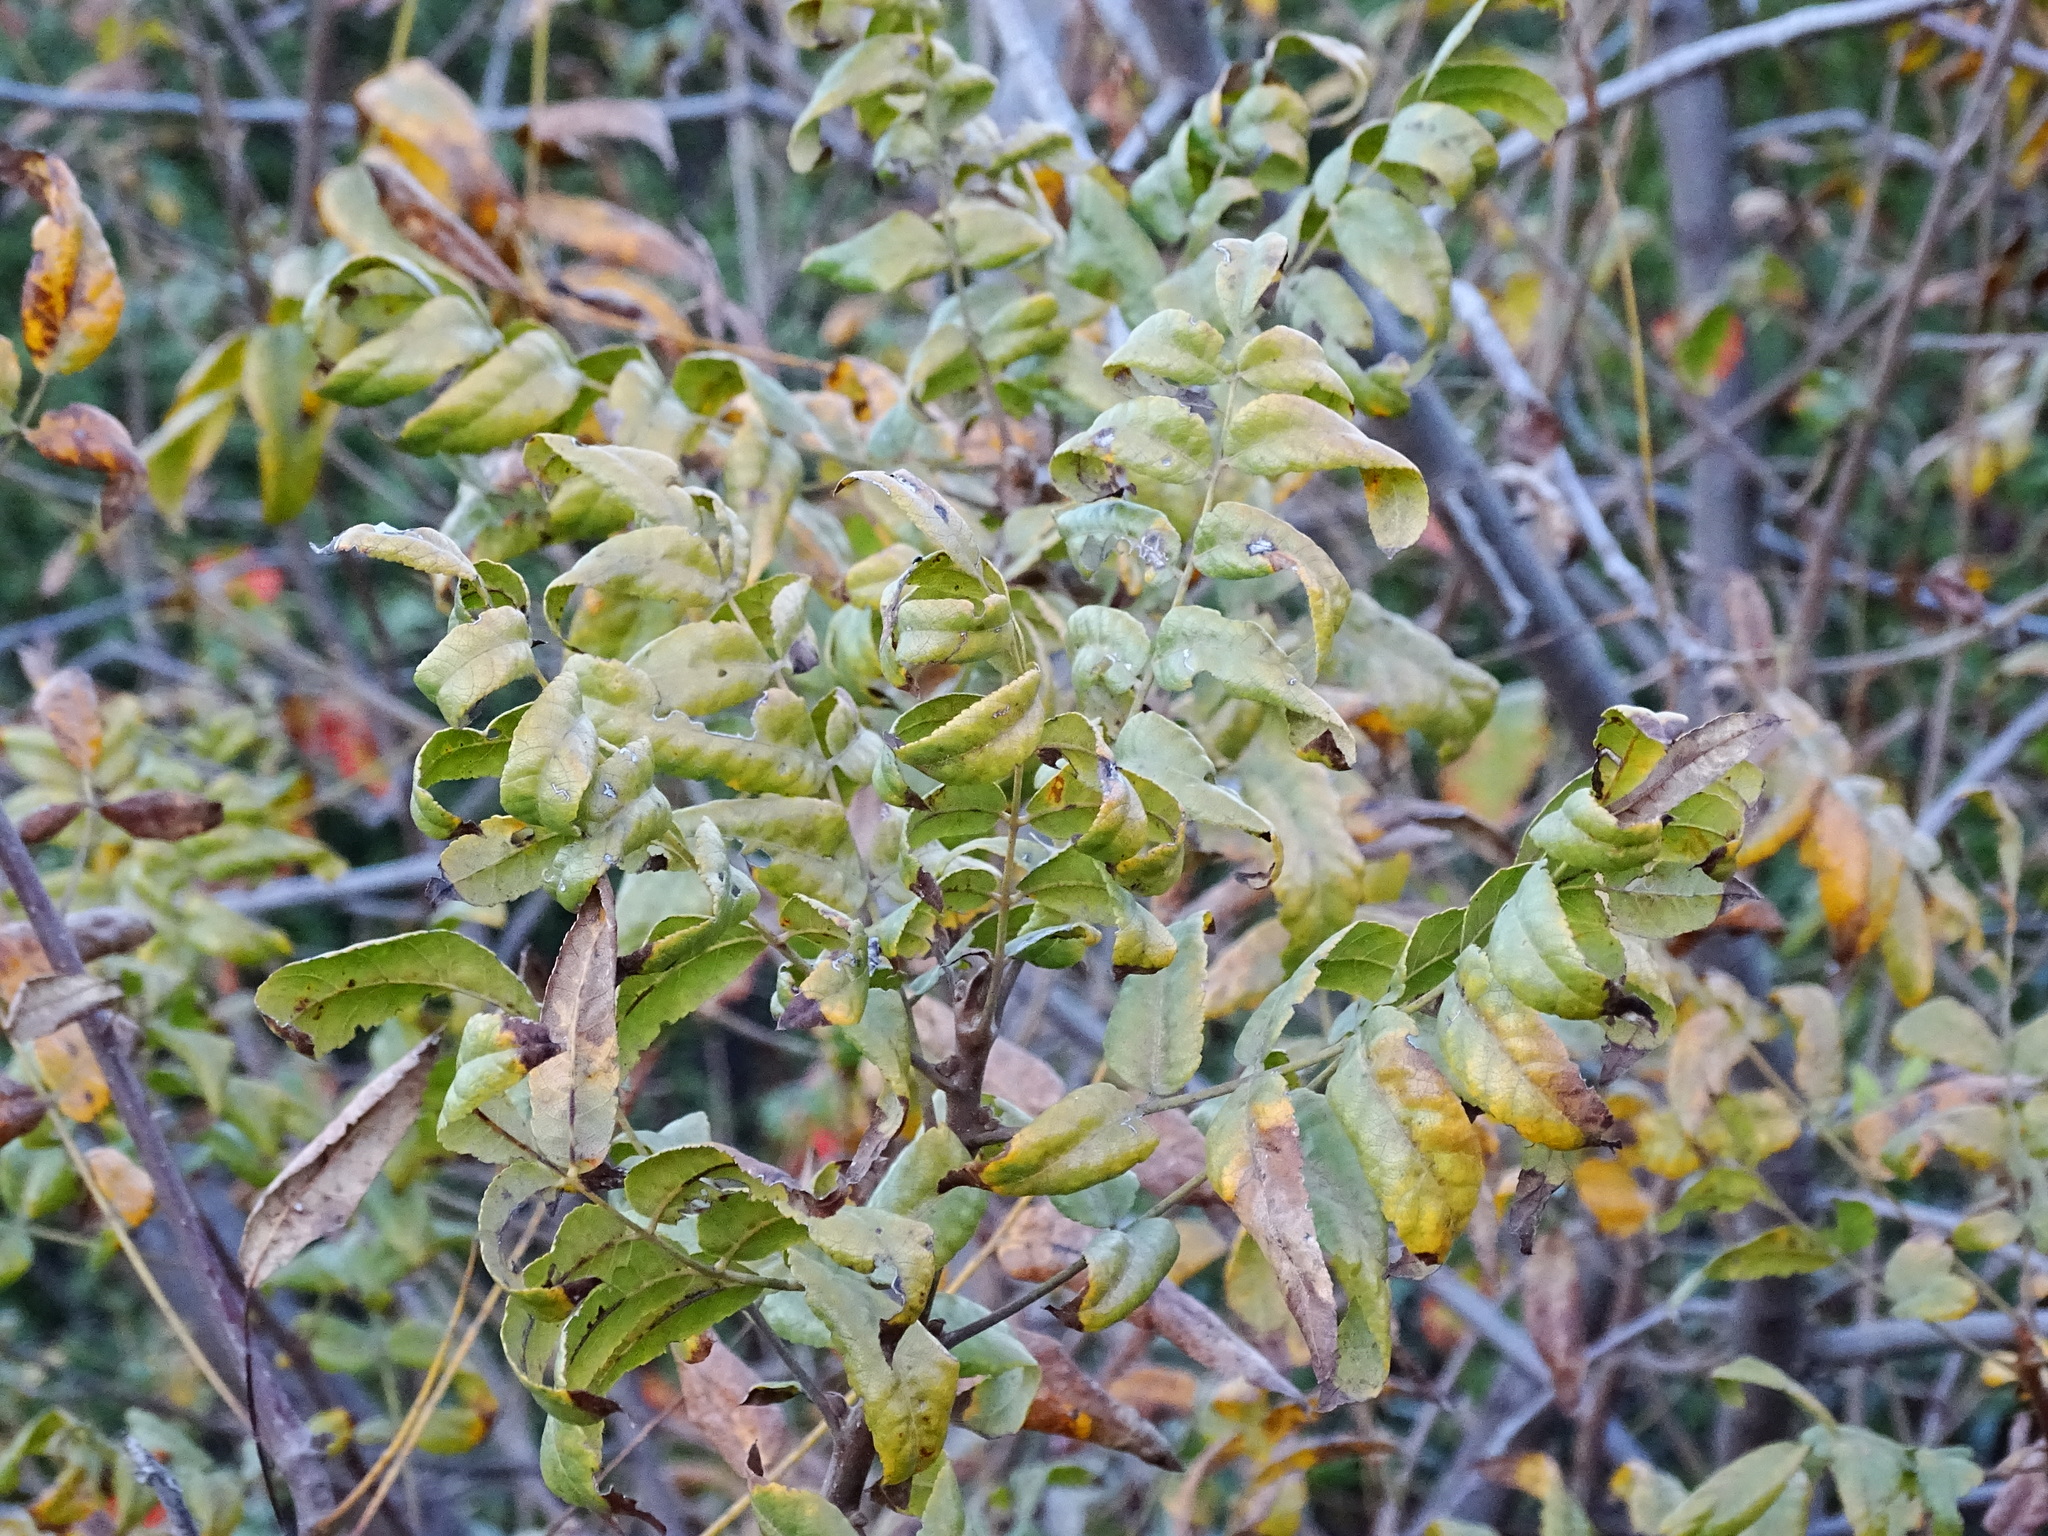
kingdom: Plantae
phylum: Tracheophyta
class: Magnoliopsida
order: Fagales
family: Juglandaceae
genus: Juglans
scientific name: Juglans californica
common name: Southern california black walnut
